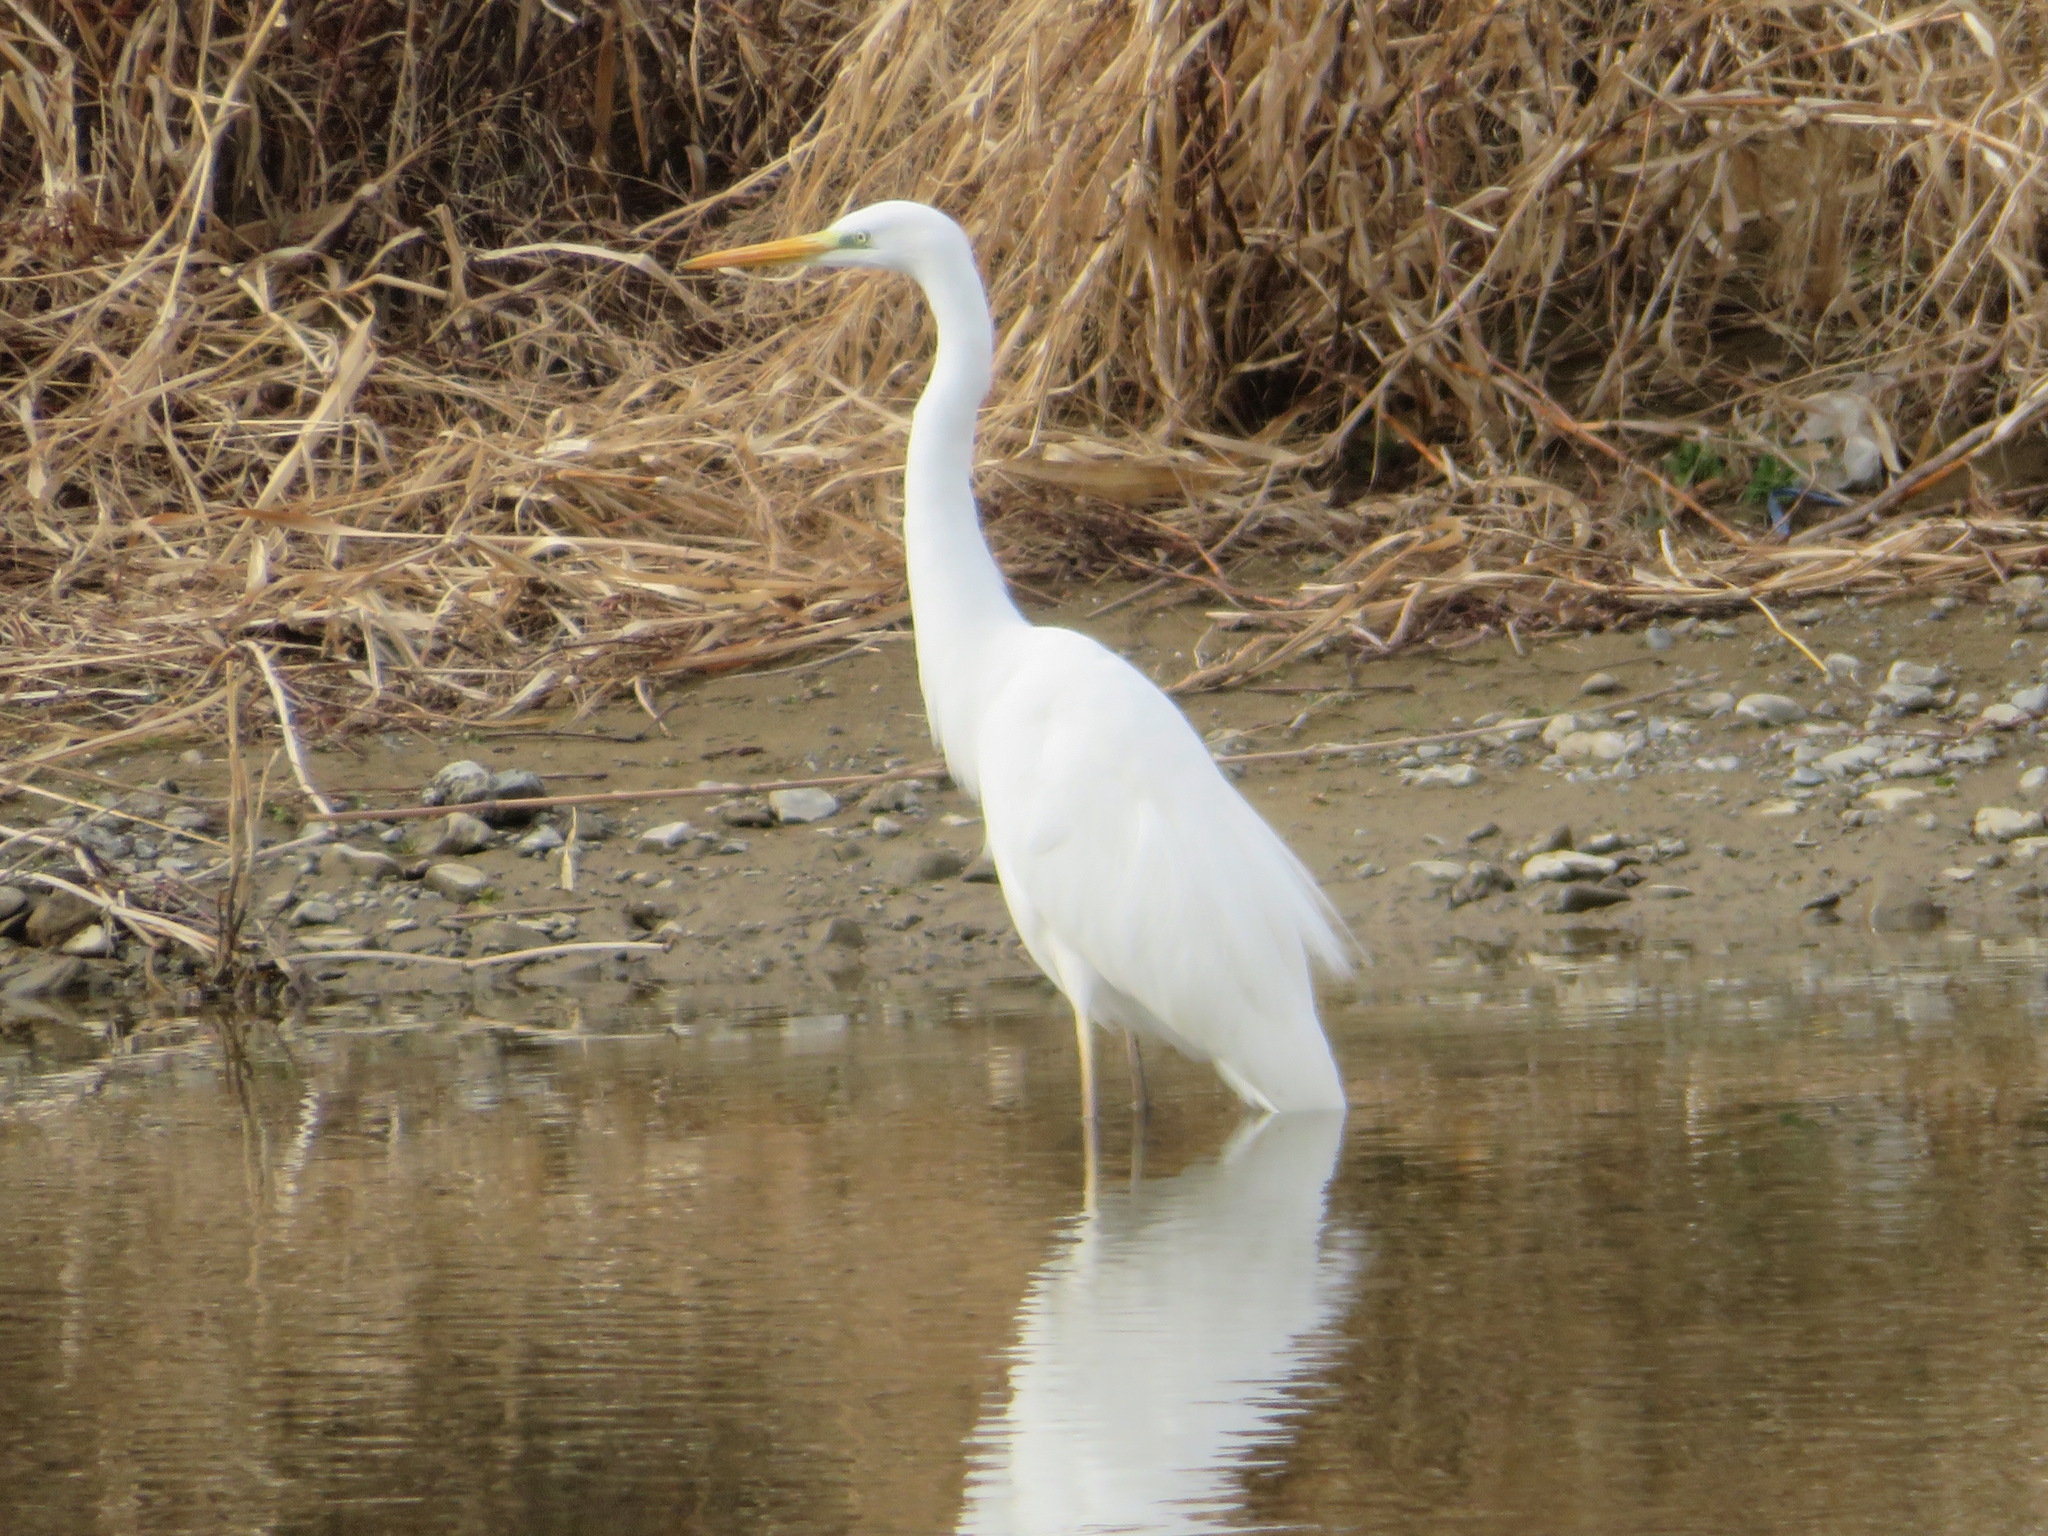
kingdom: Animalia
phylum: Chordata
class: Aves
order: Pelecaniformes
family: Ardeidae
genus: Ardea
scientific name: Ardea alba
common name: Great egret
